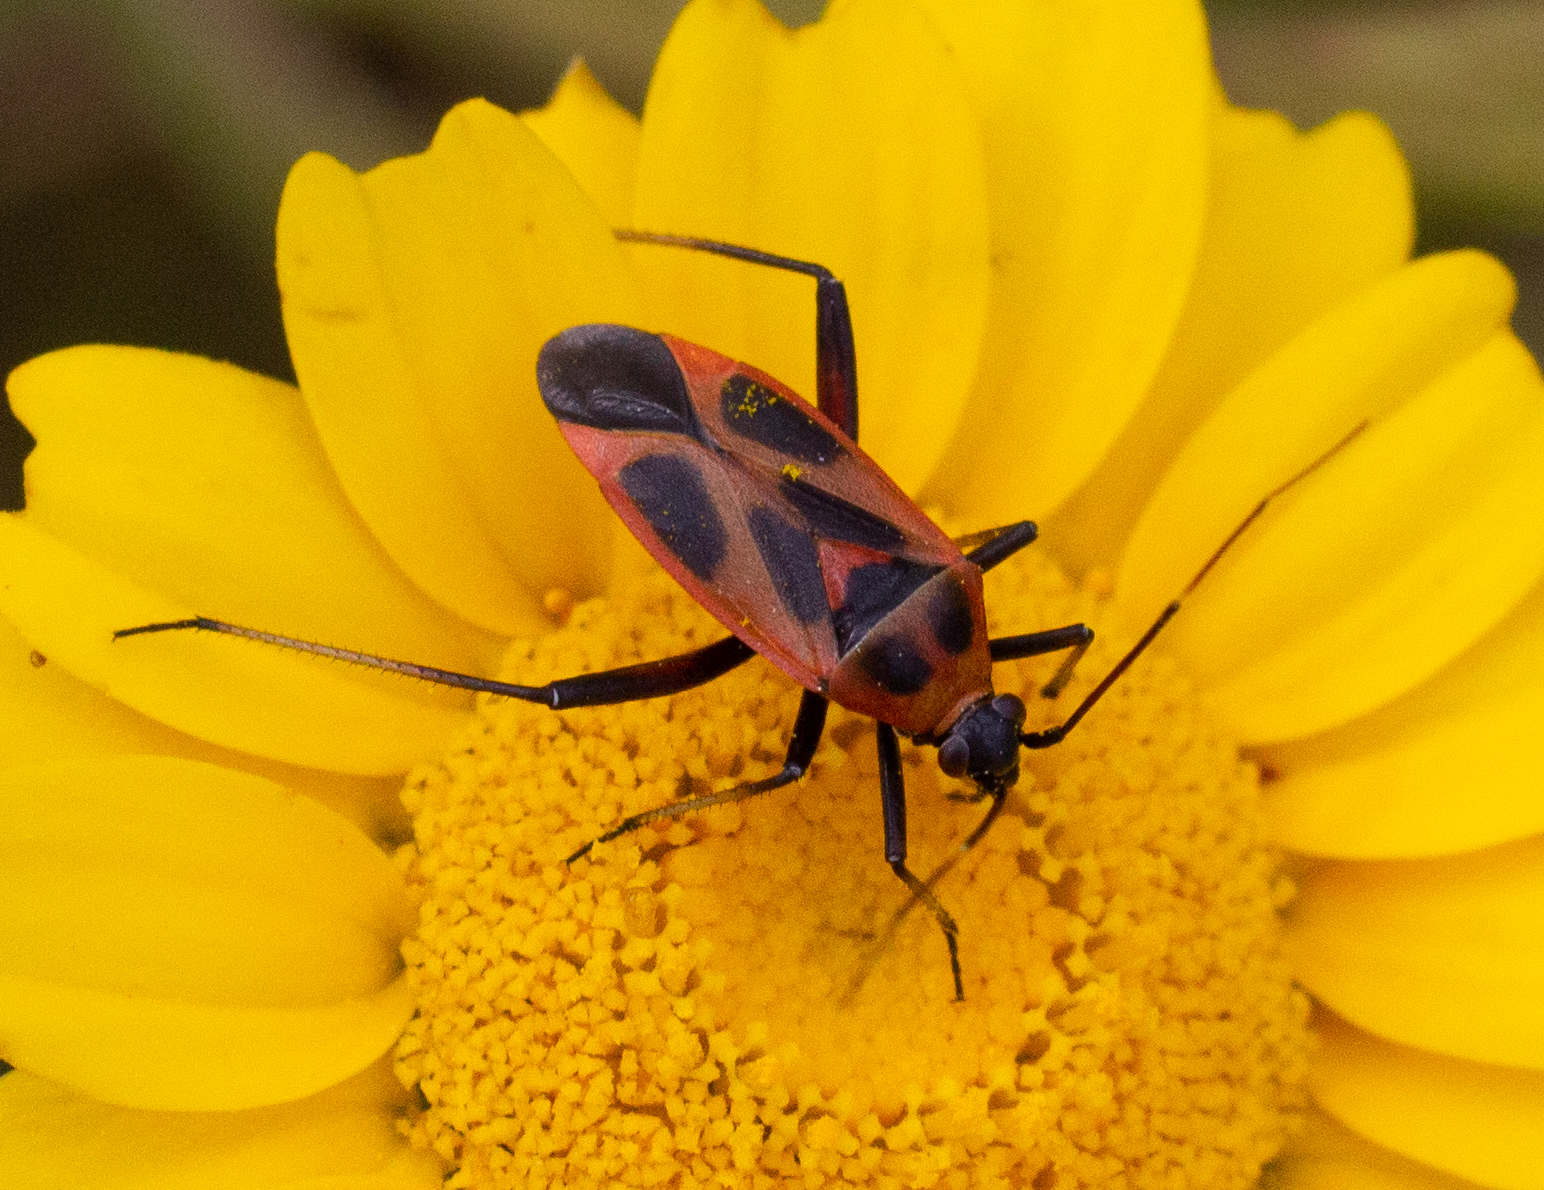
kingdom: Animalia
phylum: Arthropoda
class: Insecta
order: Hemiptera
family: Miridae
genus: Calocoris
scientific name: Calocoris nemoralis
